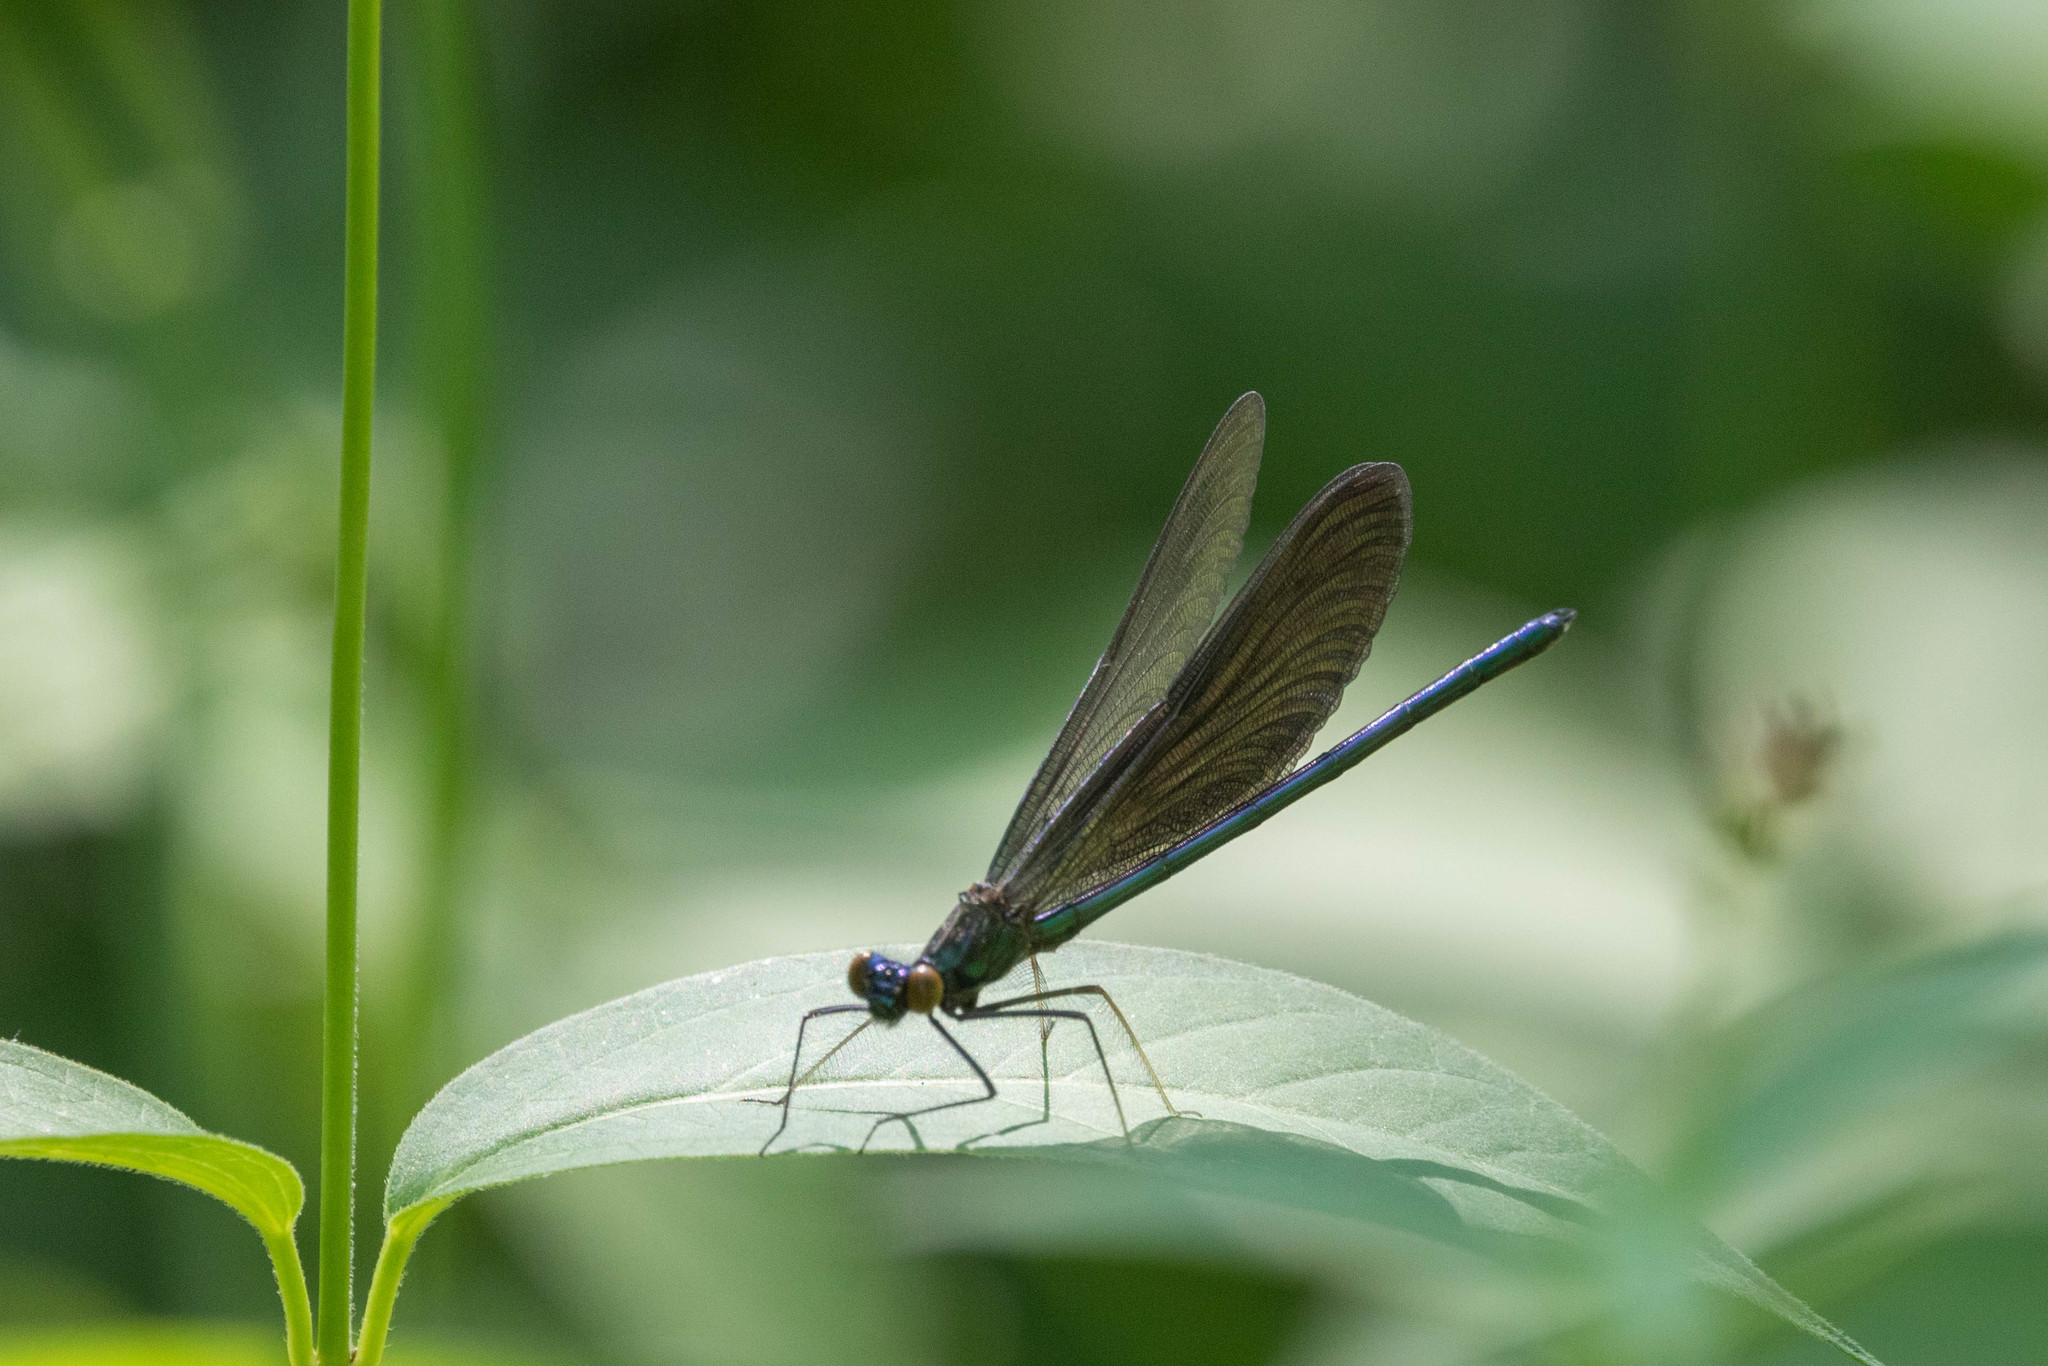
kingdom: Animalia
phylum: Arthropoda
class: Insecta
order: Odonata
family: Calopterygidae
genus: Calopteryx
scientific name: Calopteryx maculata
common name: Ebony jewelwing
